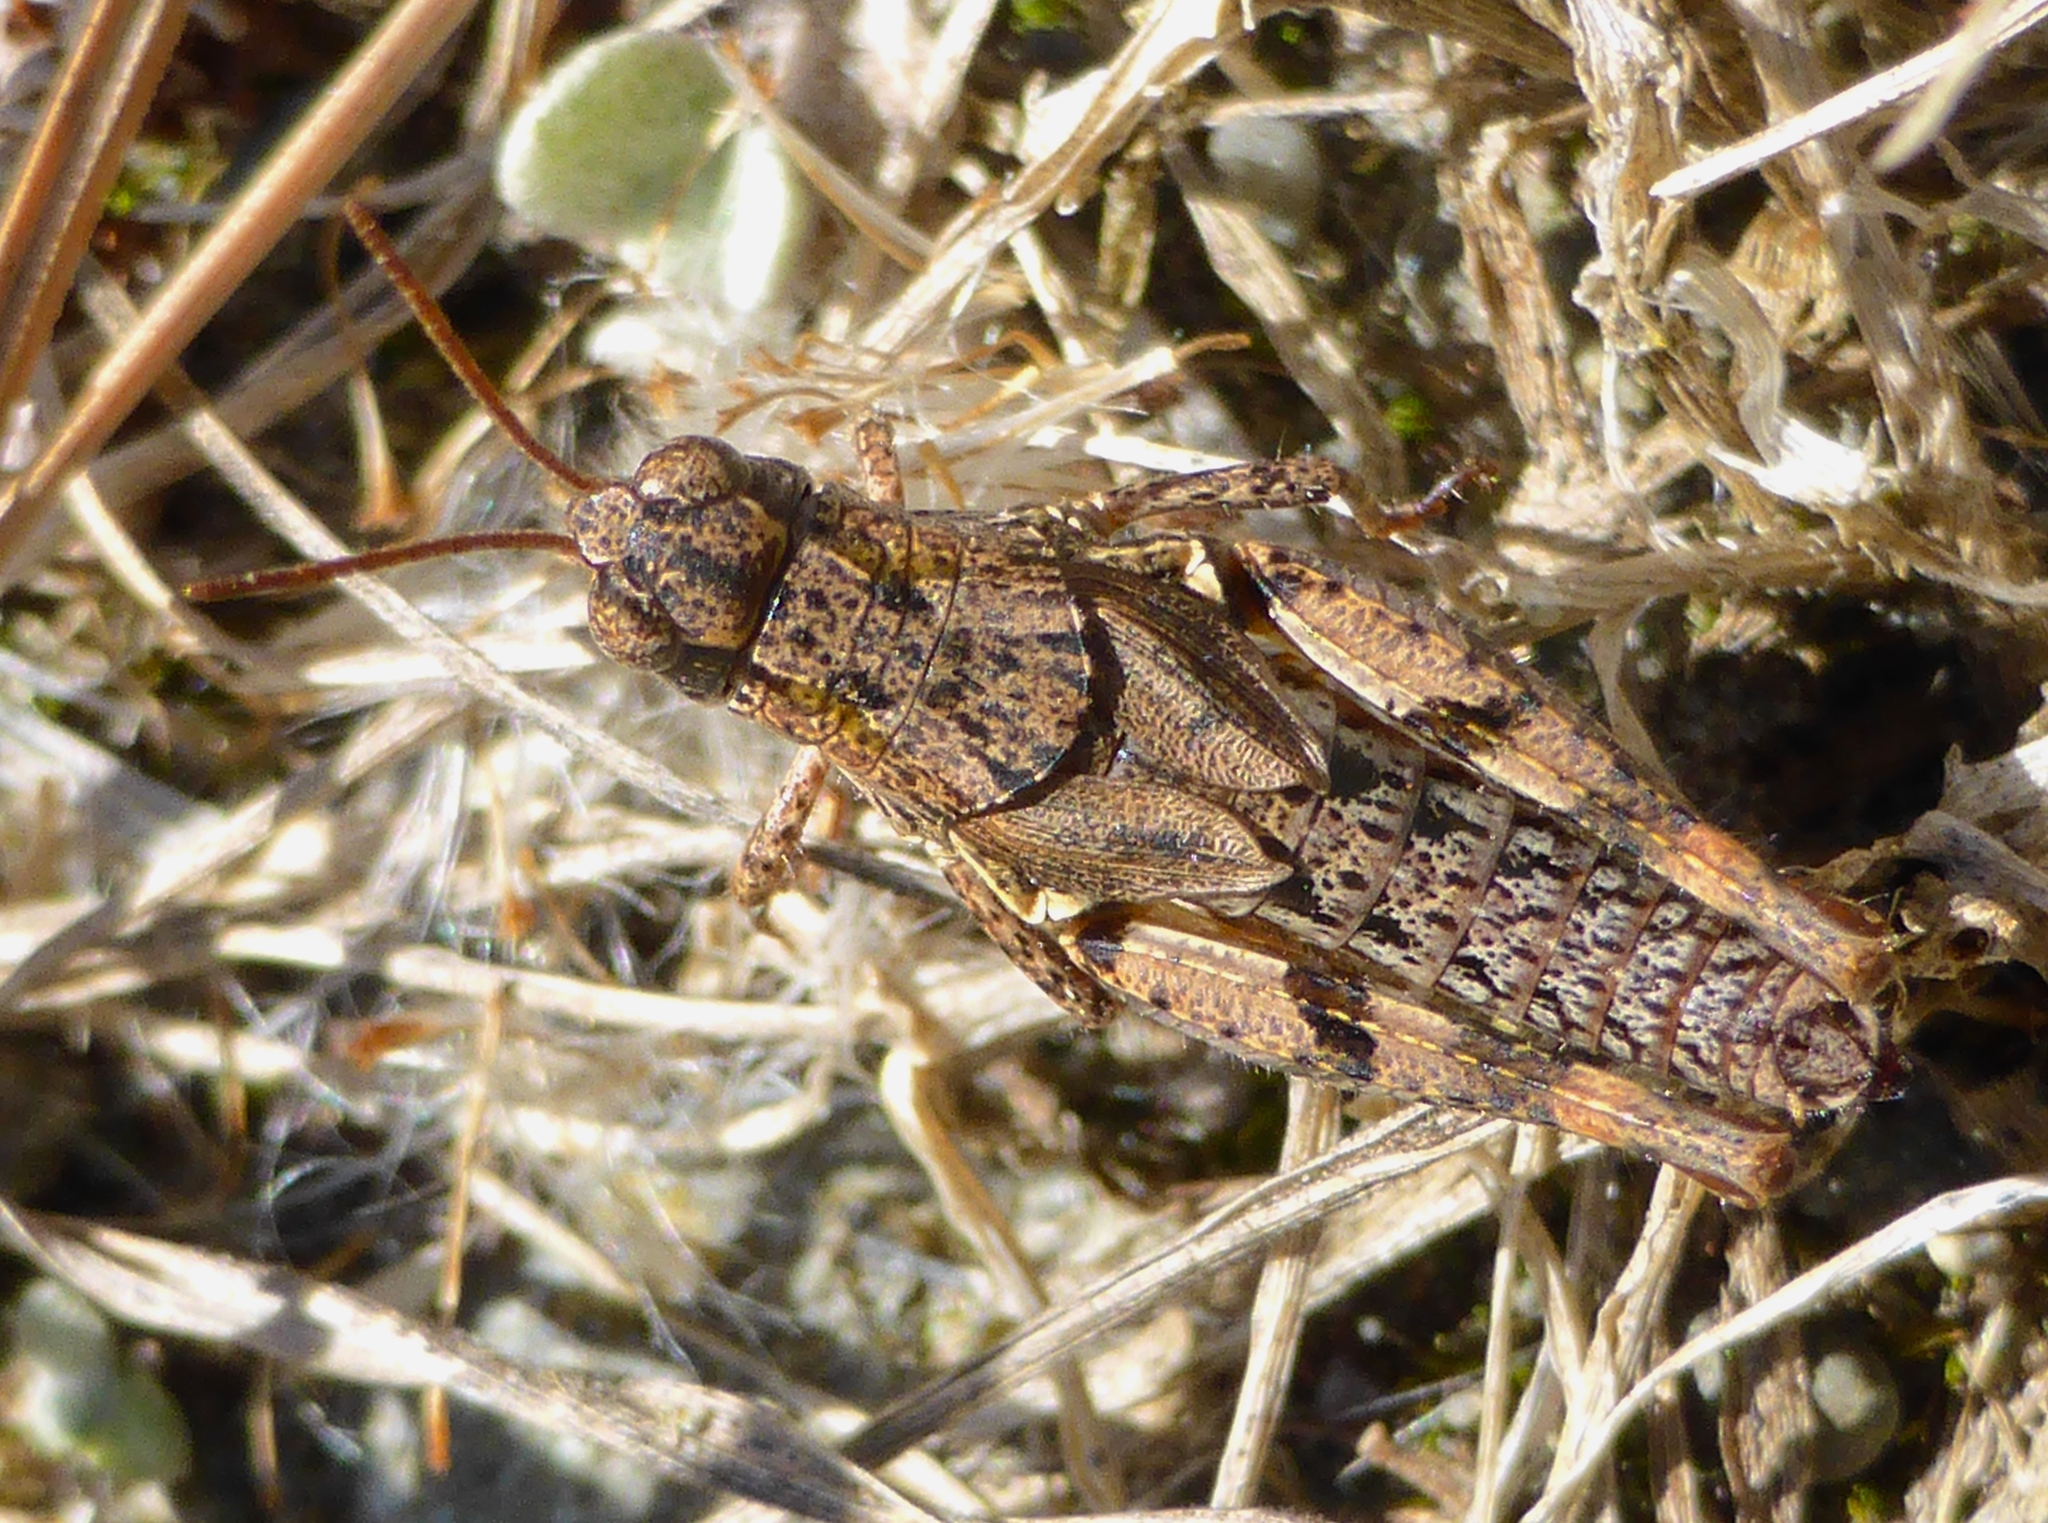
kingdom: Animalia
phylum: Arthropoda
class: Insecta
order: Orthoptera
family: Acrididae
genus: Phaulacridium
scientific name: Phaulacridium marginale
